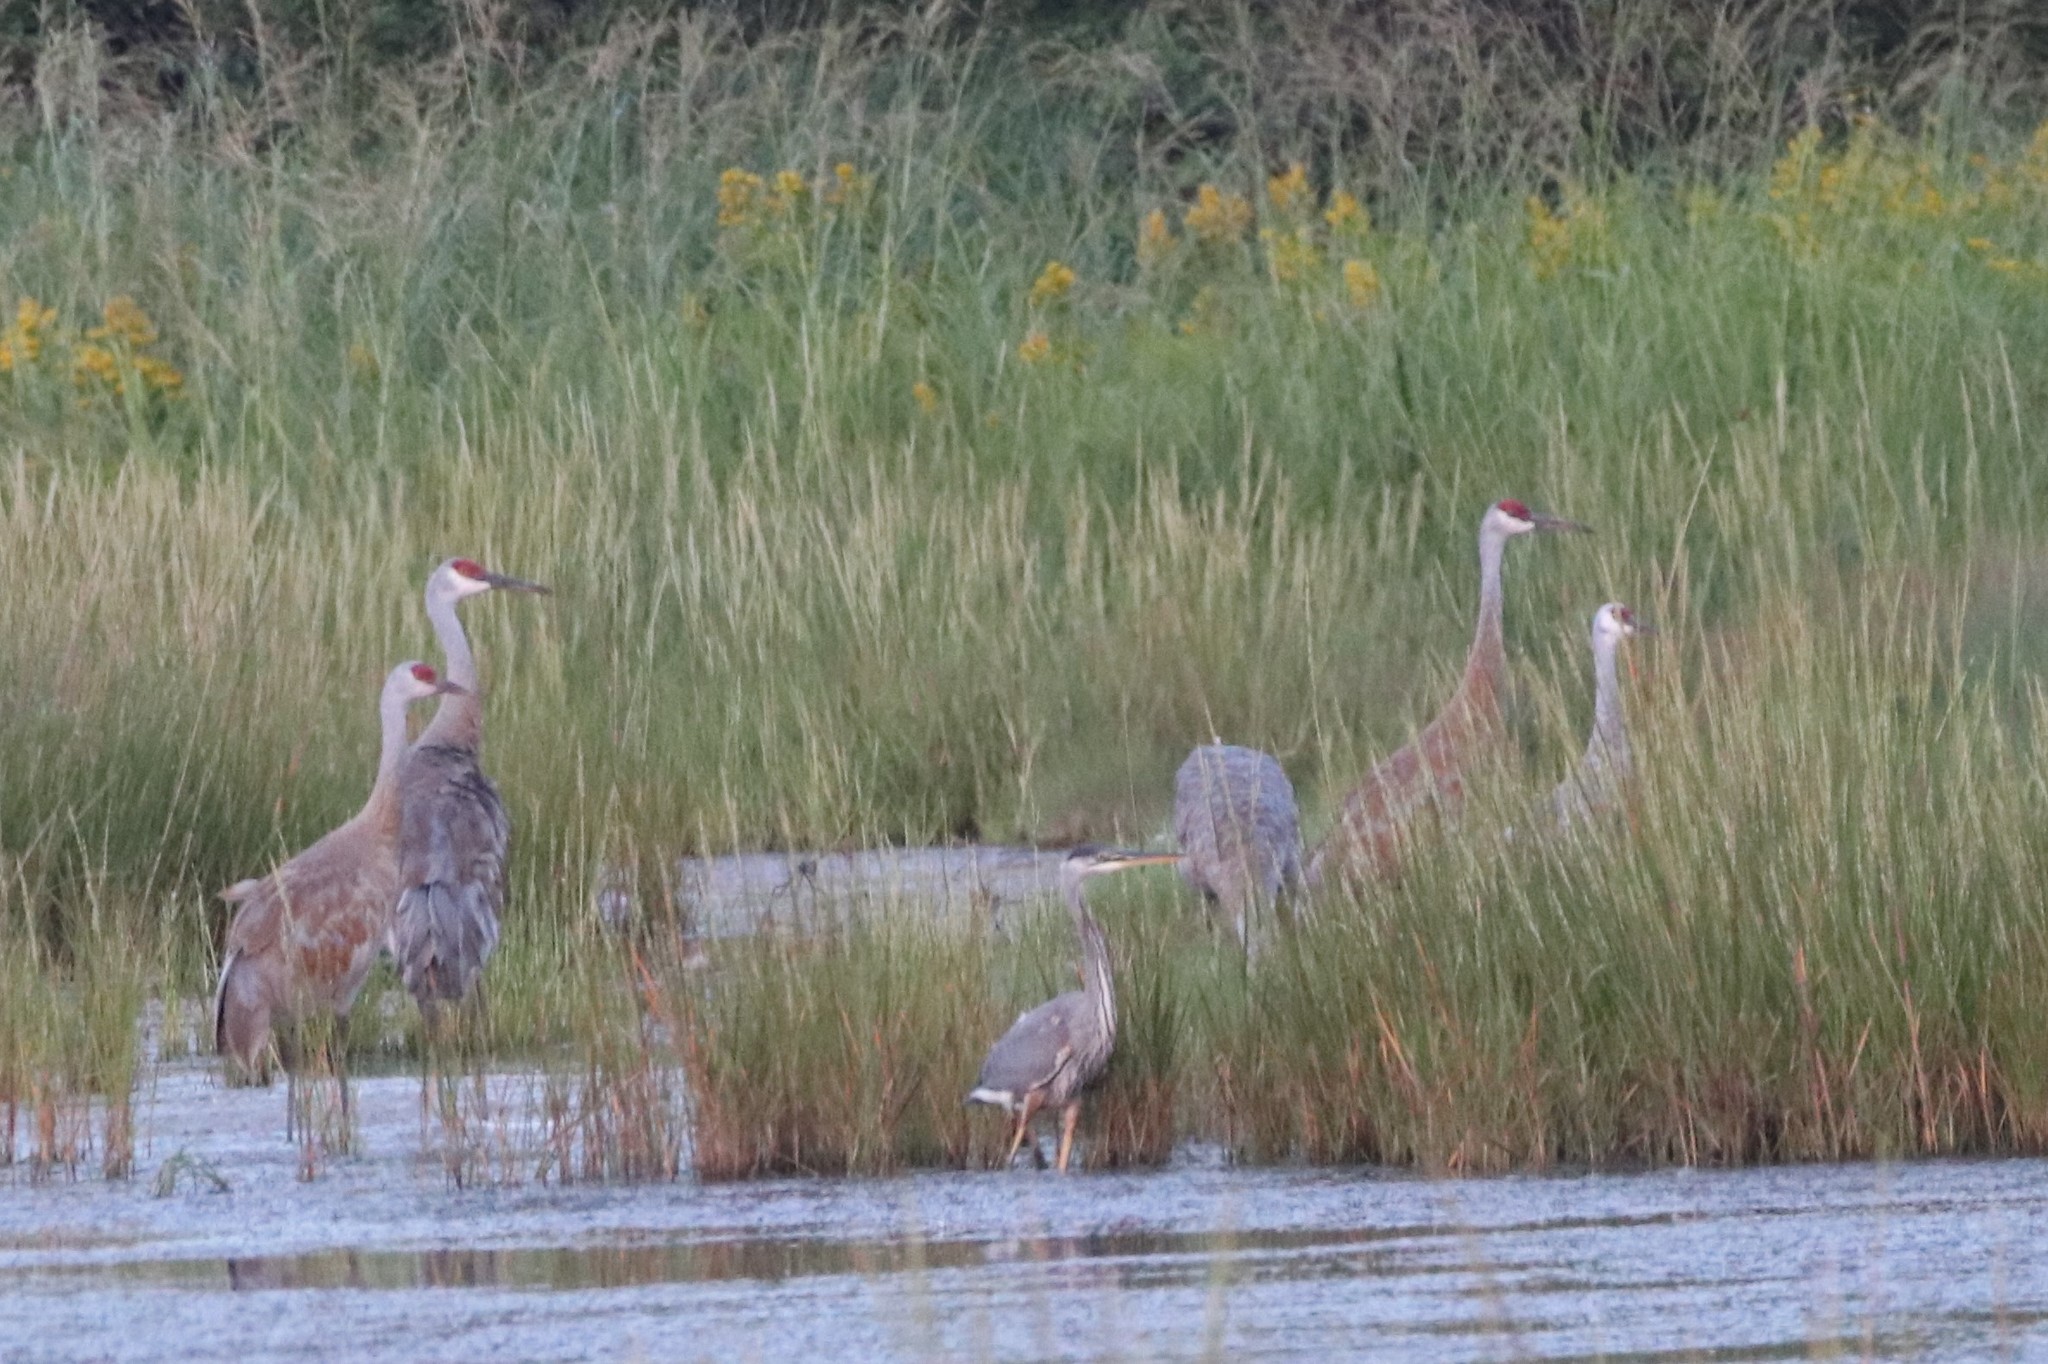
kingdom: Animalia
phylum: Chordata
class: Aves
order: Gruiformes
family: Gruidae
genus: Grus
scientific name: Grus canadensis
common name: Sandhill crane
